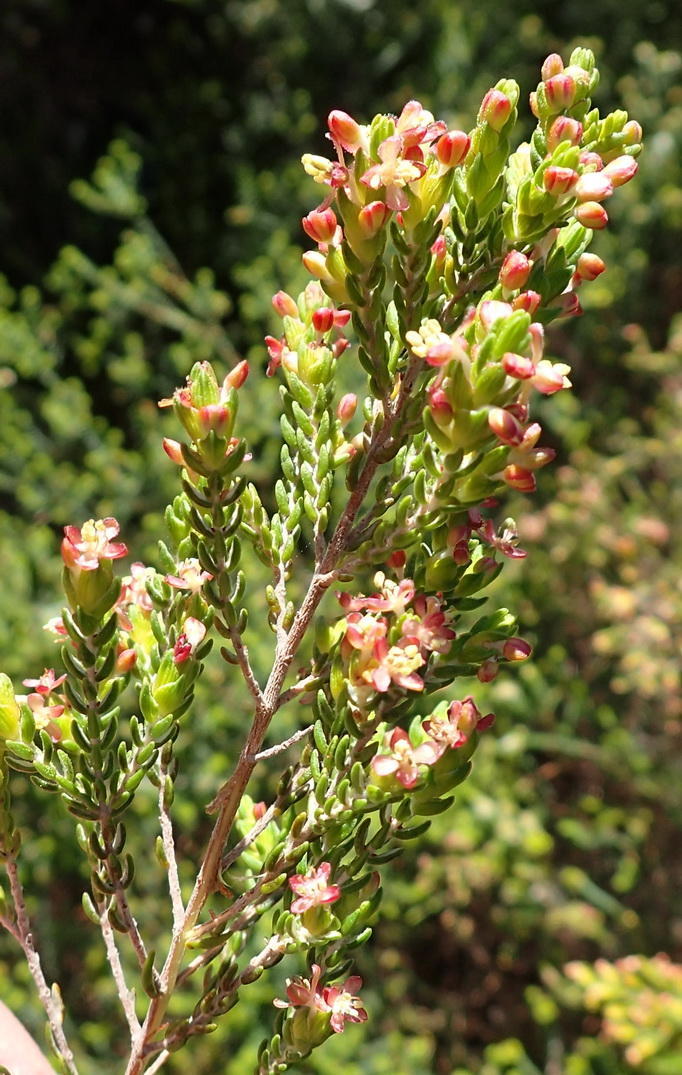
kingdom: Plantae
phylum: Tracheophyta
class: Magnoliopsida
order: Malvales
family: Thymelaeaceae
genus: Passerina
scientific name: Passerina rigida
